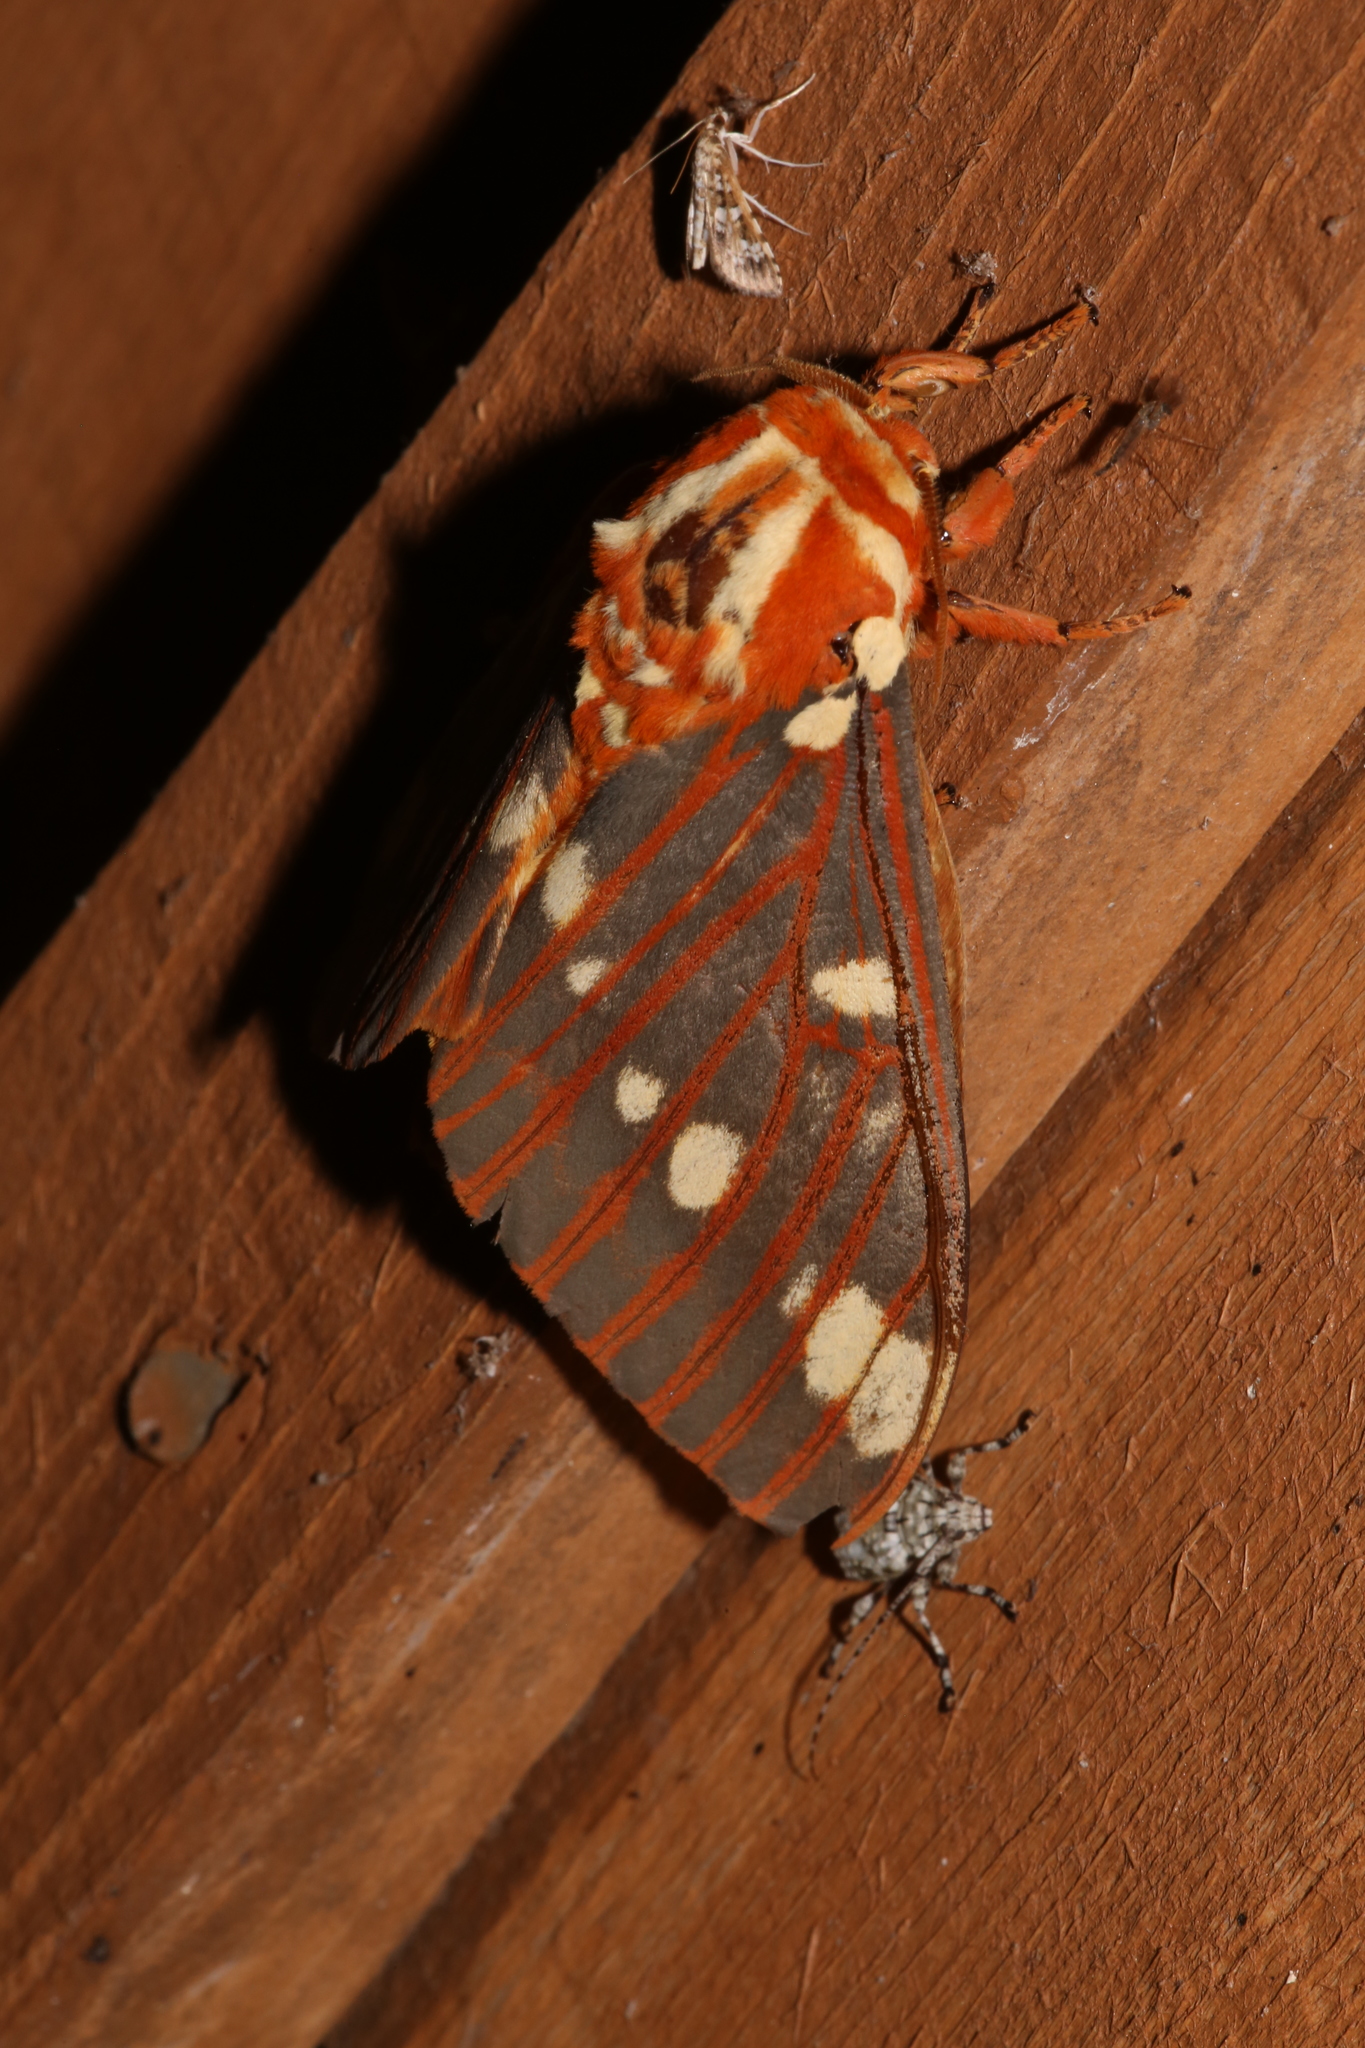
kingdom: Animalia
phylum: Arthropoda
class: Insecta
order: Lepidoptera
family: Saturniidae
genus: Citheronia
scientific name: Citheronia regalis
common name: Hickory horned devil
